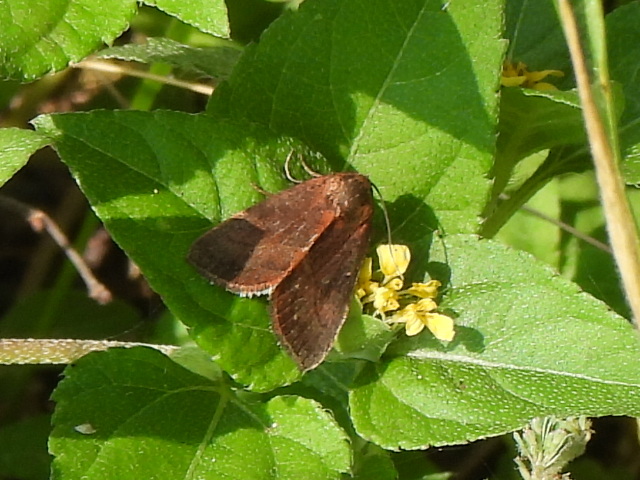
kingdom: Animalia
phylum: Arthropoda
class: Insecta
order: Lepidoptera
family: Noctuidae
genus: Galgula
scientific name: Galgula partita
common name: Wedgeling
